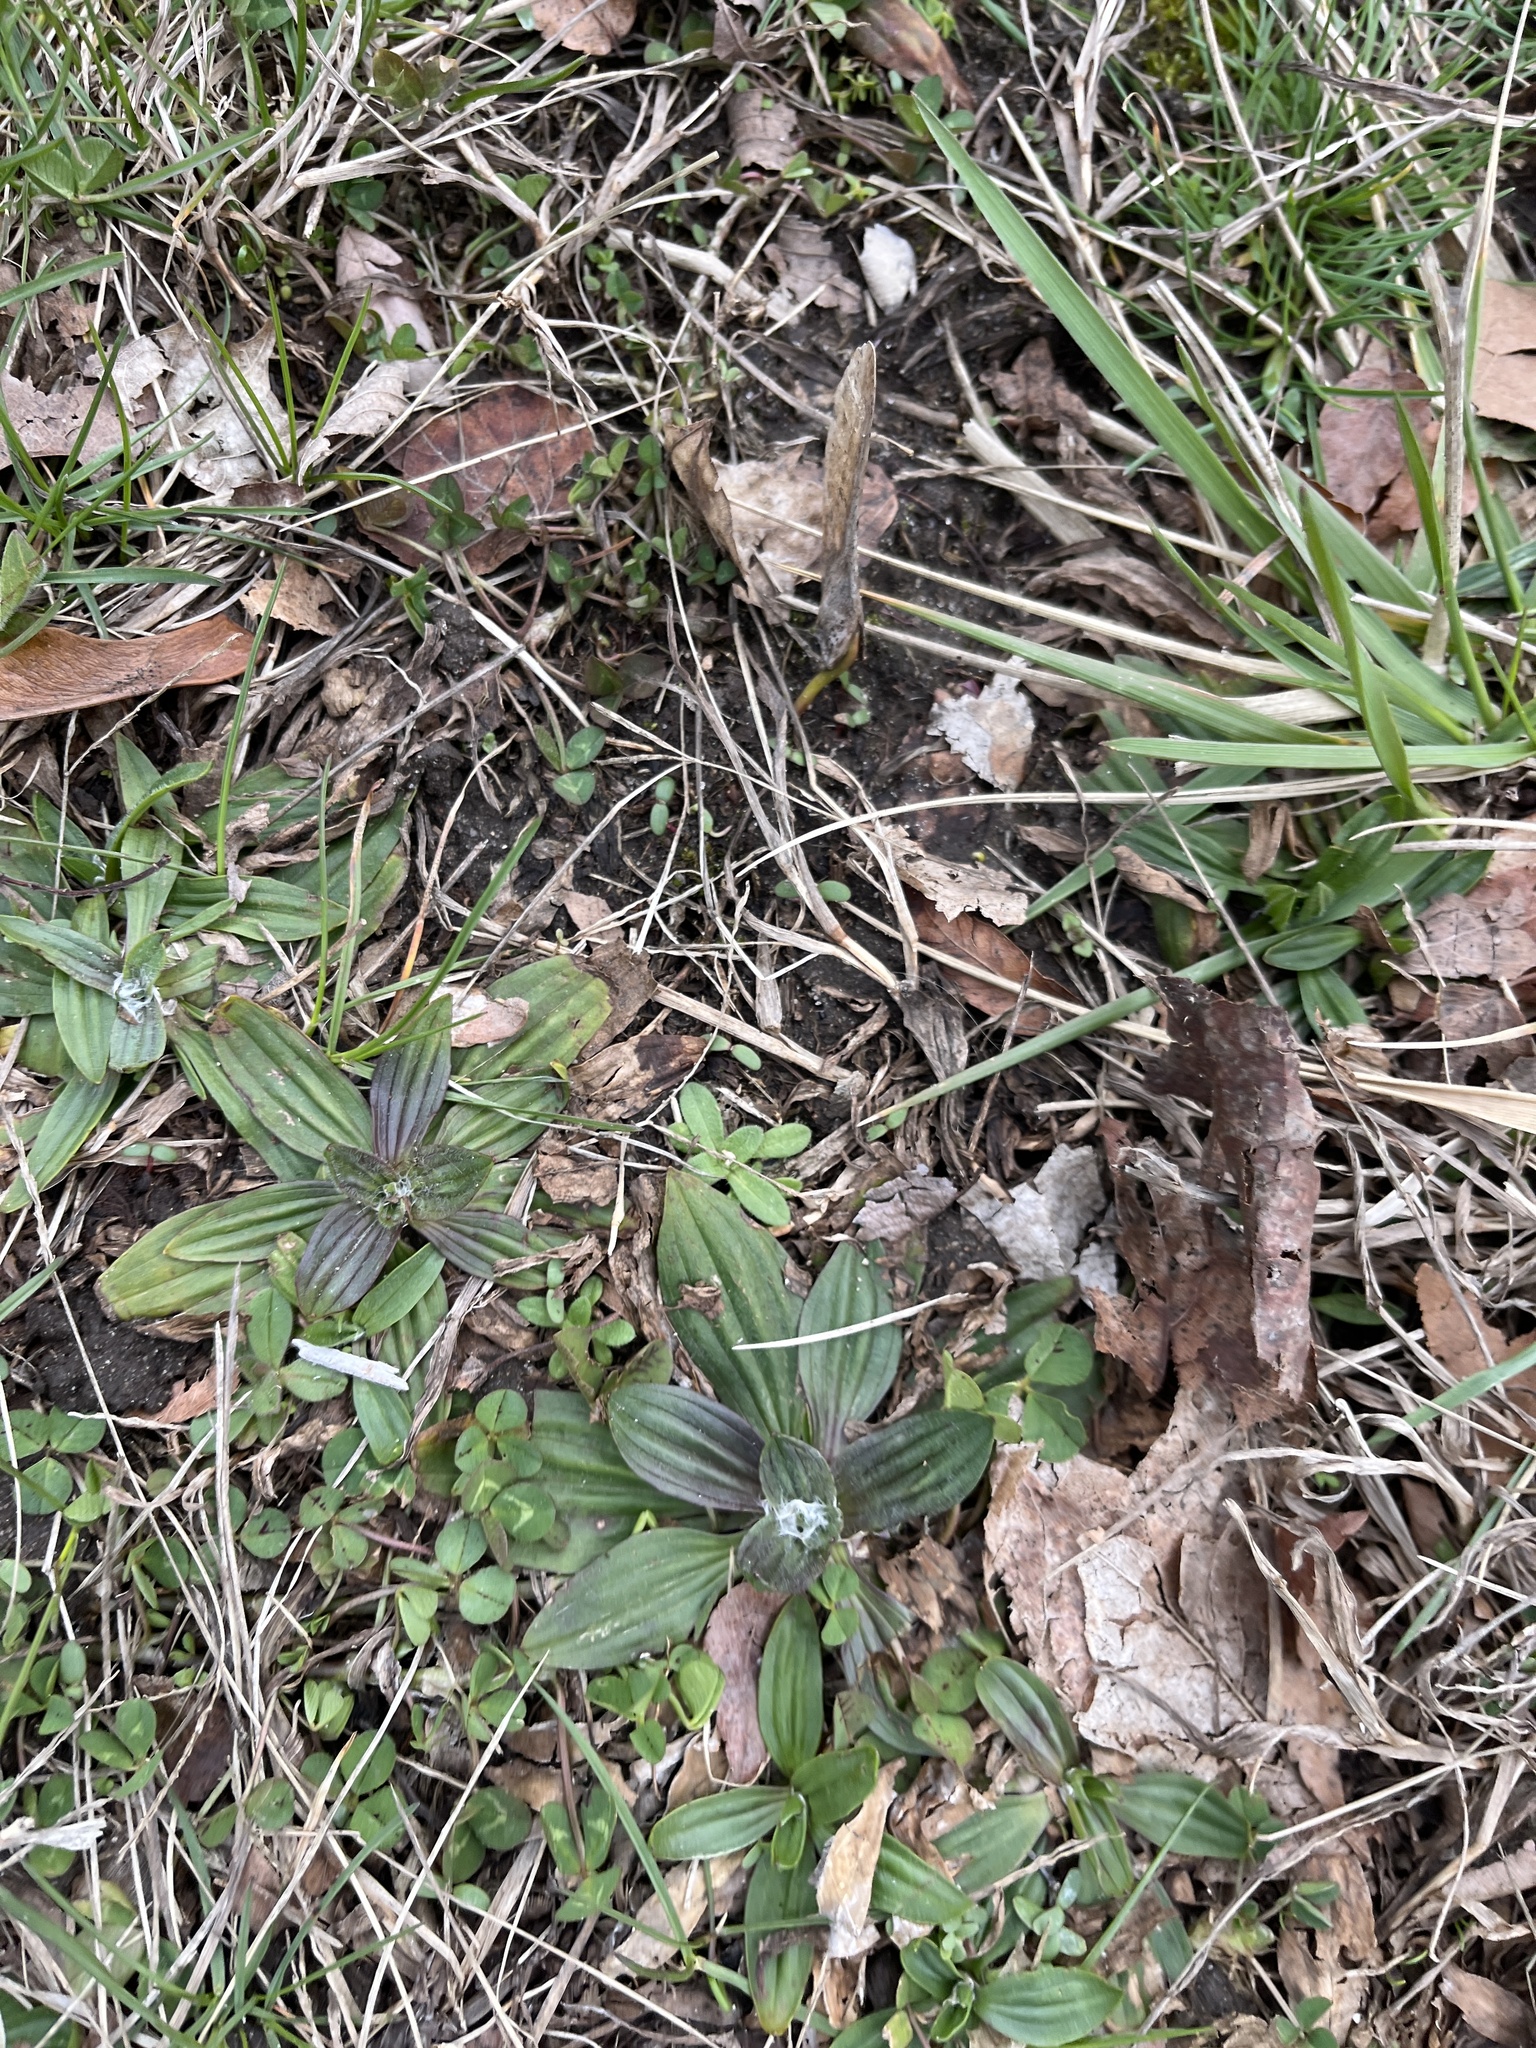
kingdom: Plantae
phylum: Tracheophyta
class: Magnoliopsida
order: Lamiales
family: Plantaginaceae
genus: Plantago
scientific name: Plantago lanceolata
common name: Ribwort plantain
